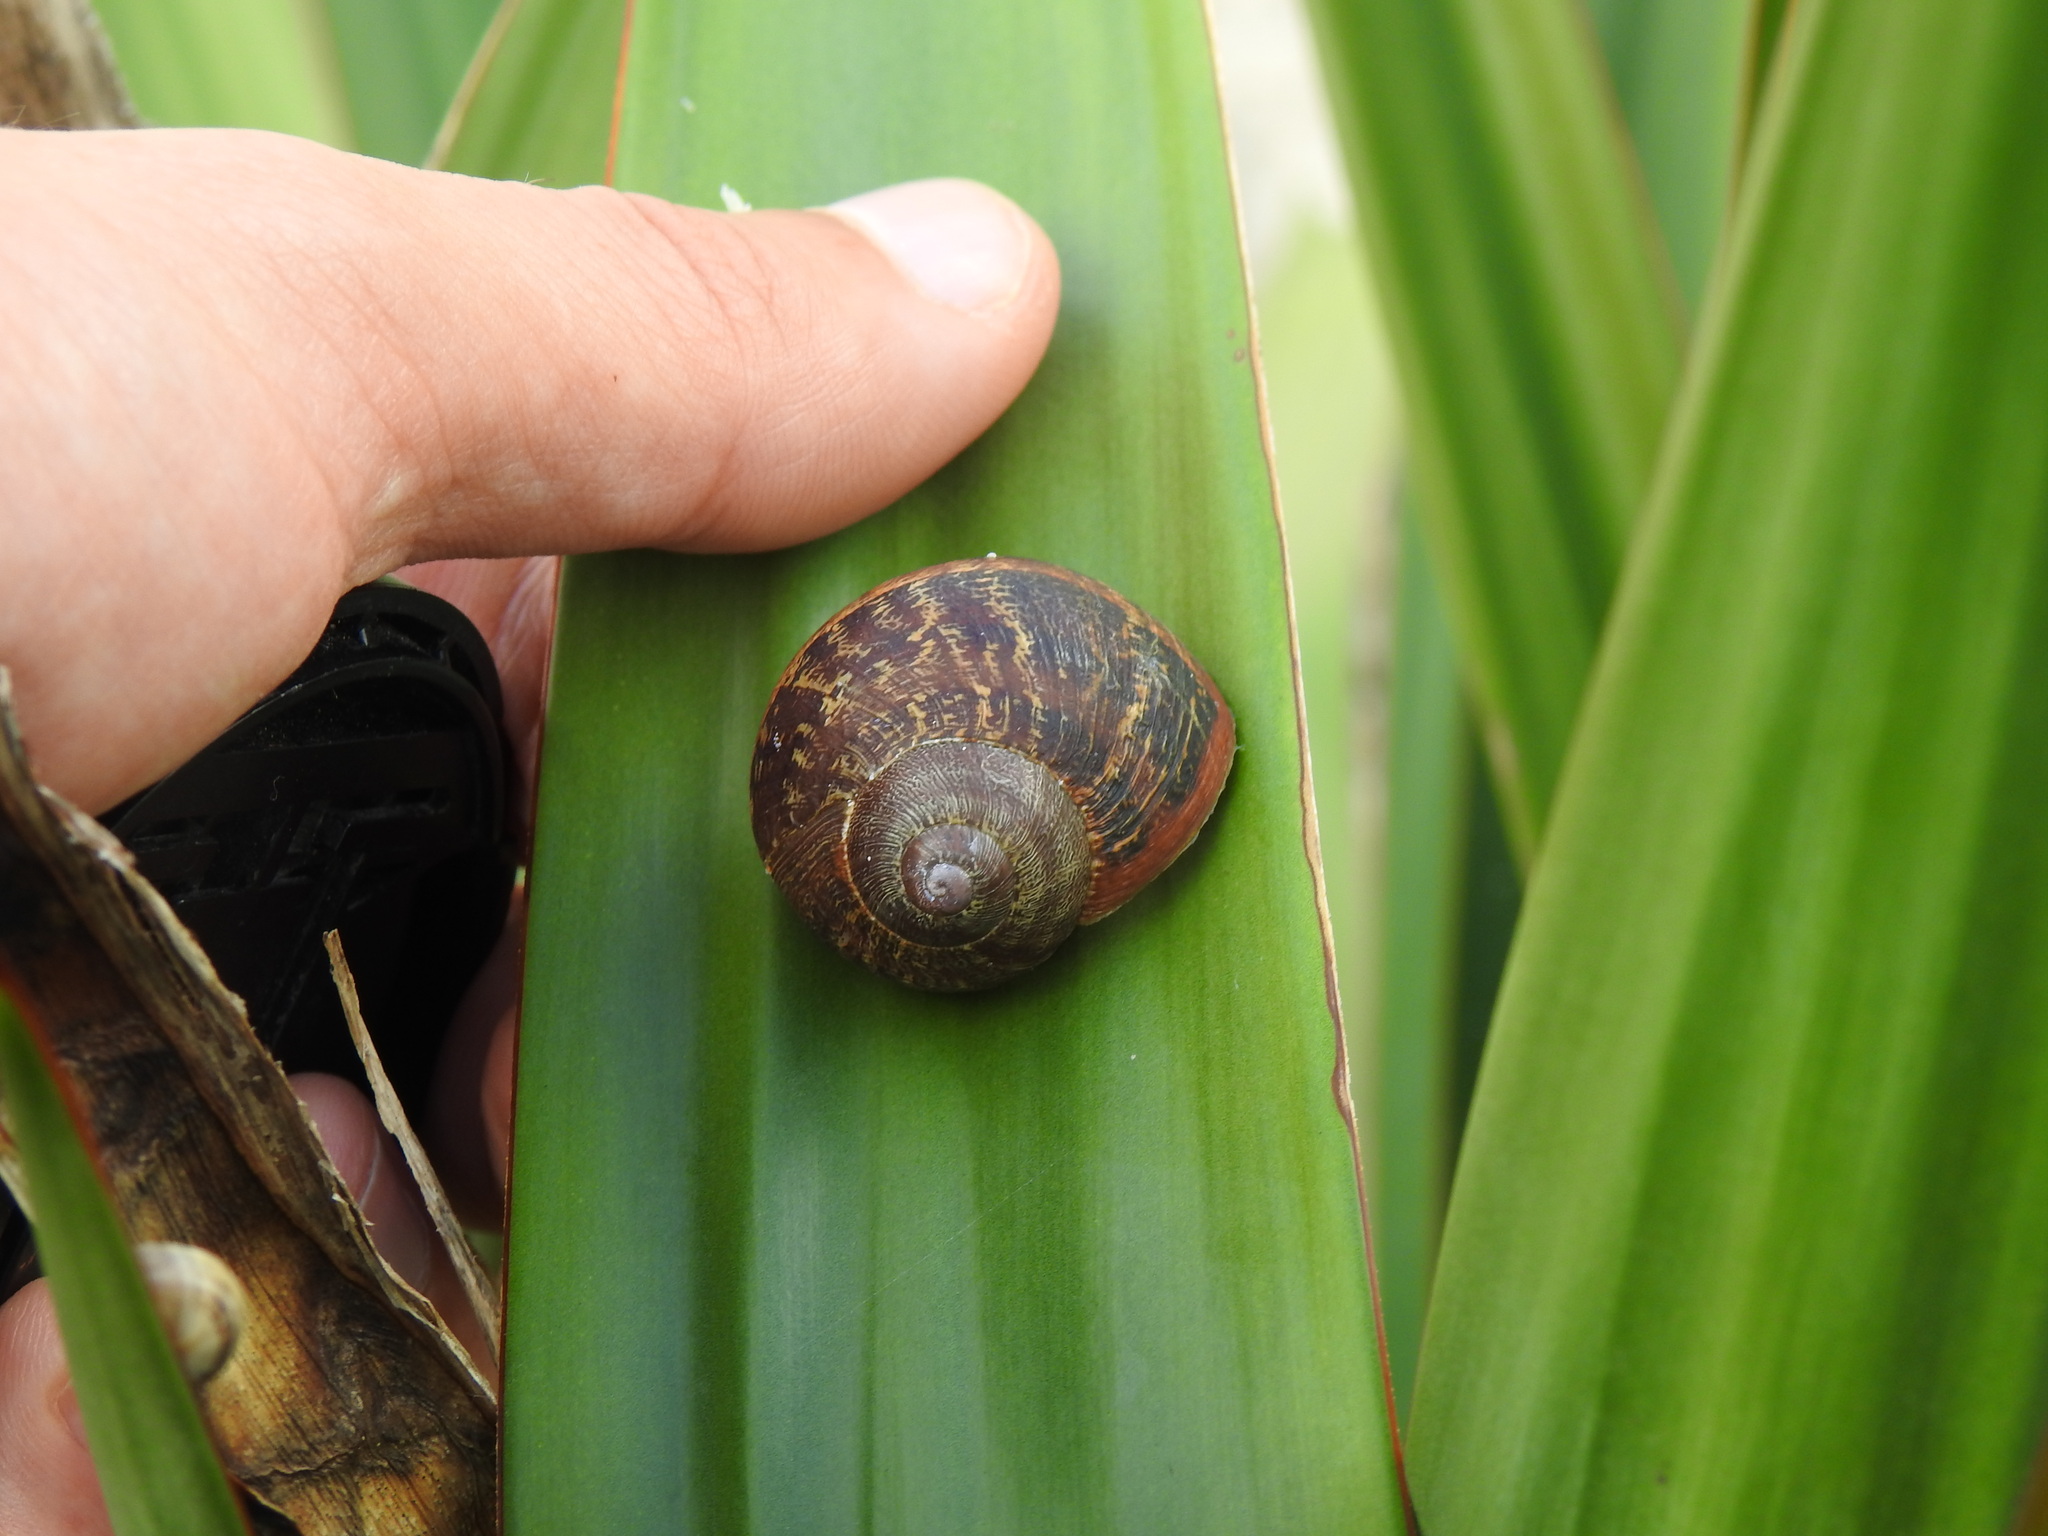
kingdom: Animalia
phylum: Mollusca
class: Gastropoda
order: Stylommatophora
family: Helicidae
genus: Cornu
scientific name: Cornu aspersum
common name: Brown garden snail
